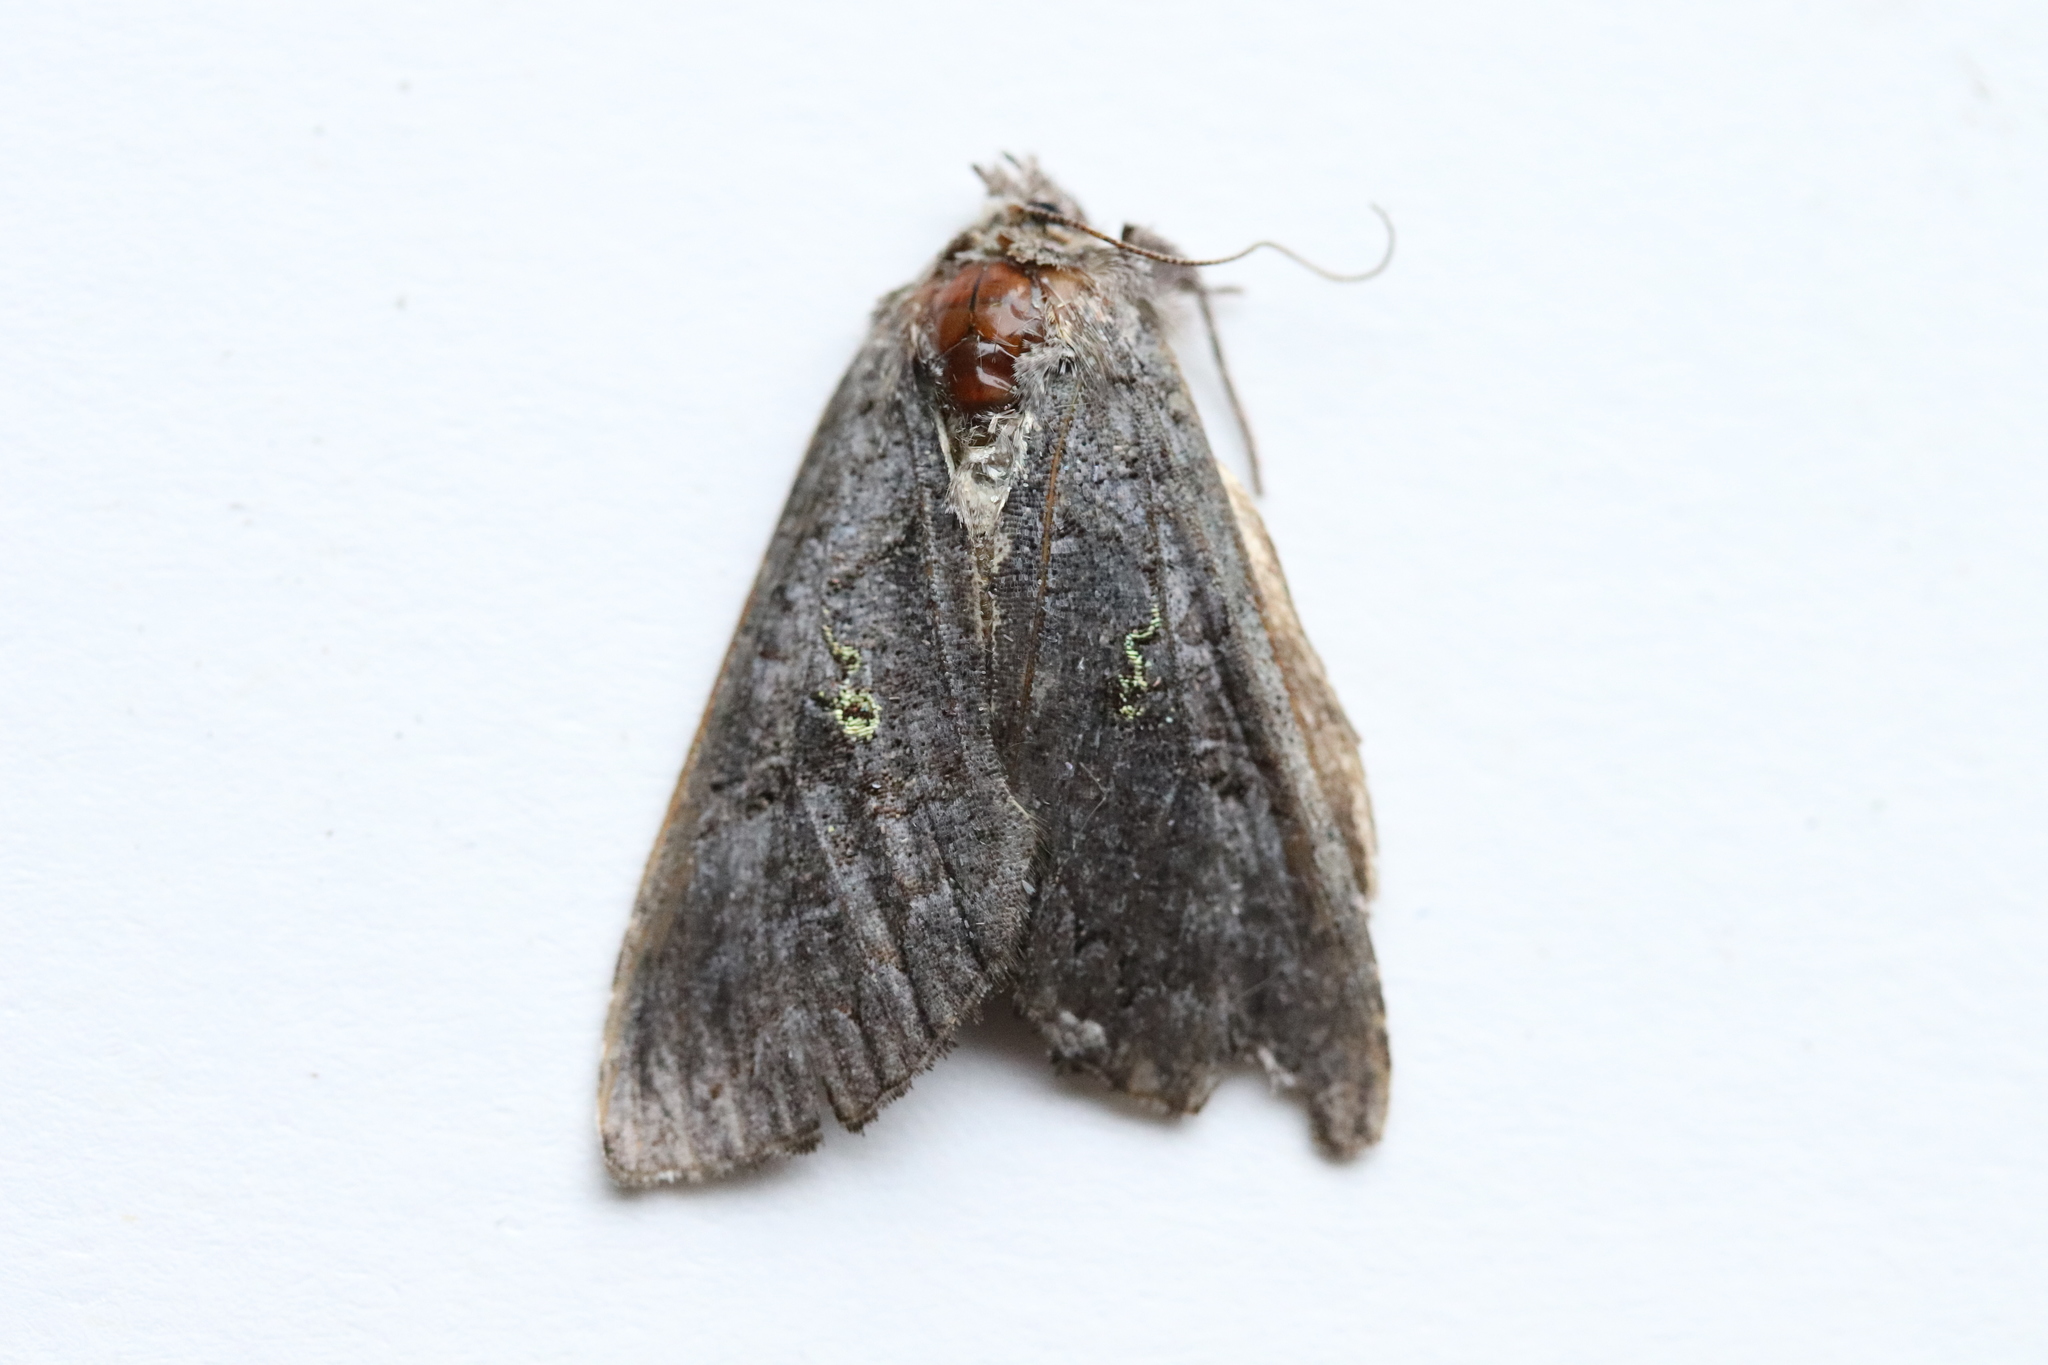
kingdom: Animalia
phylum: Arthropoda
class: Insecta
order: Lepidoptera
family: Noctuidae
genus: Syngrapha
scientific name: Syngrapha viridisigma
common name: Spruce false looper moth
